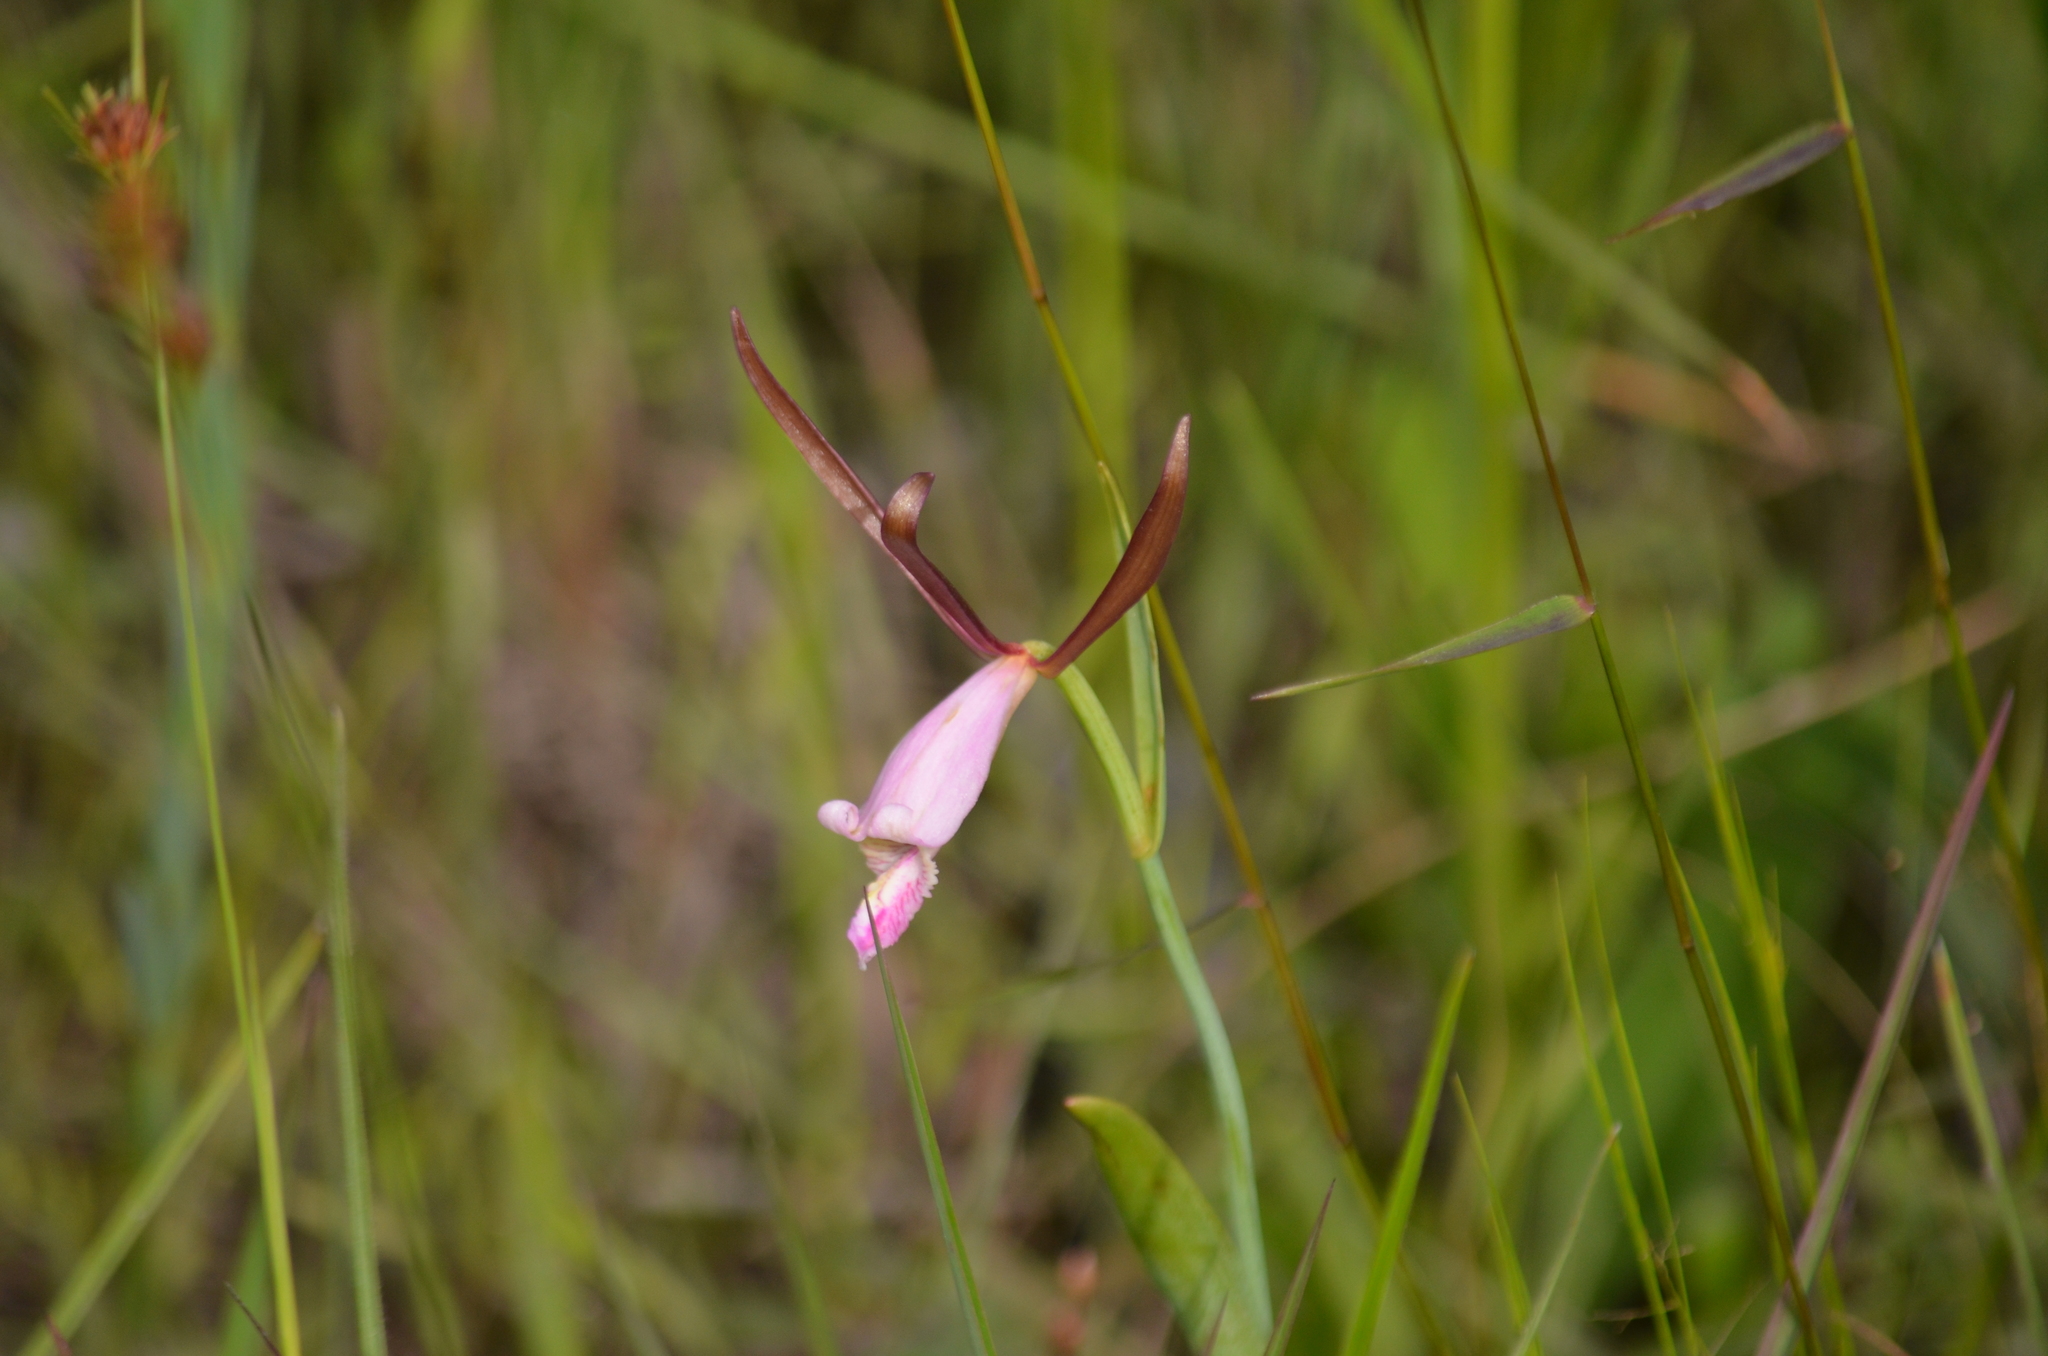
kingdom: Plantae
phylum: Tracheophyta
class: Liliopsida
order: Asparagales
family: Orchidaceae
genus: Cleistesiopsis
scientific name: Cleistesiopsis oricamporum
